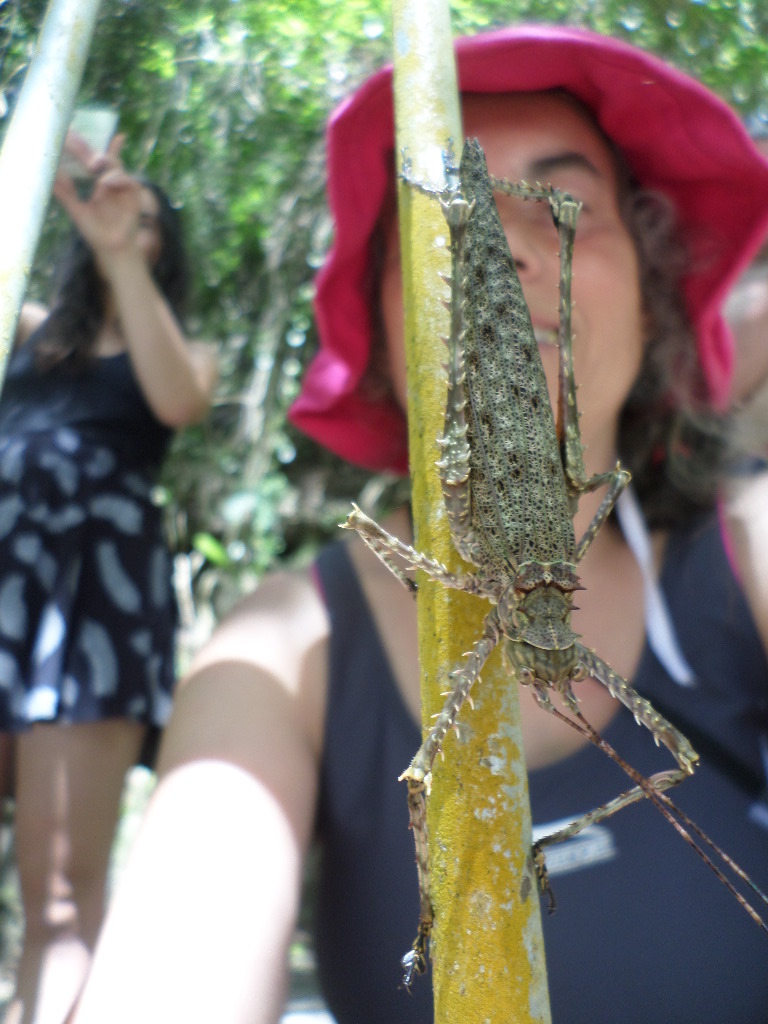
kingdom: Animalia
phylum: Arthropoda
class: Insecta
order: Orthoptera
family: Tettigoniidae
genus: Phricta
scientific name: Phricta spinosa
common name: Giant spiny forest katydid
